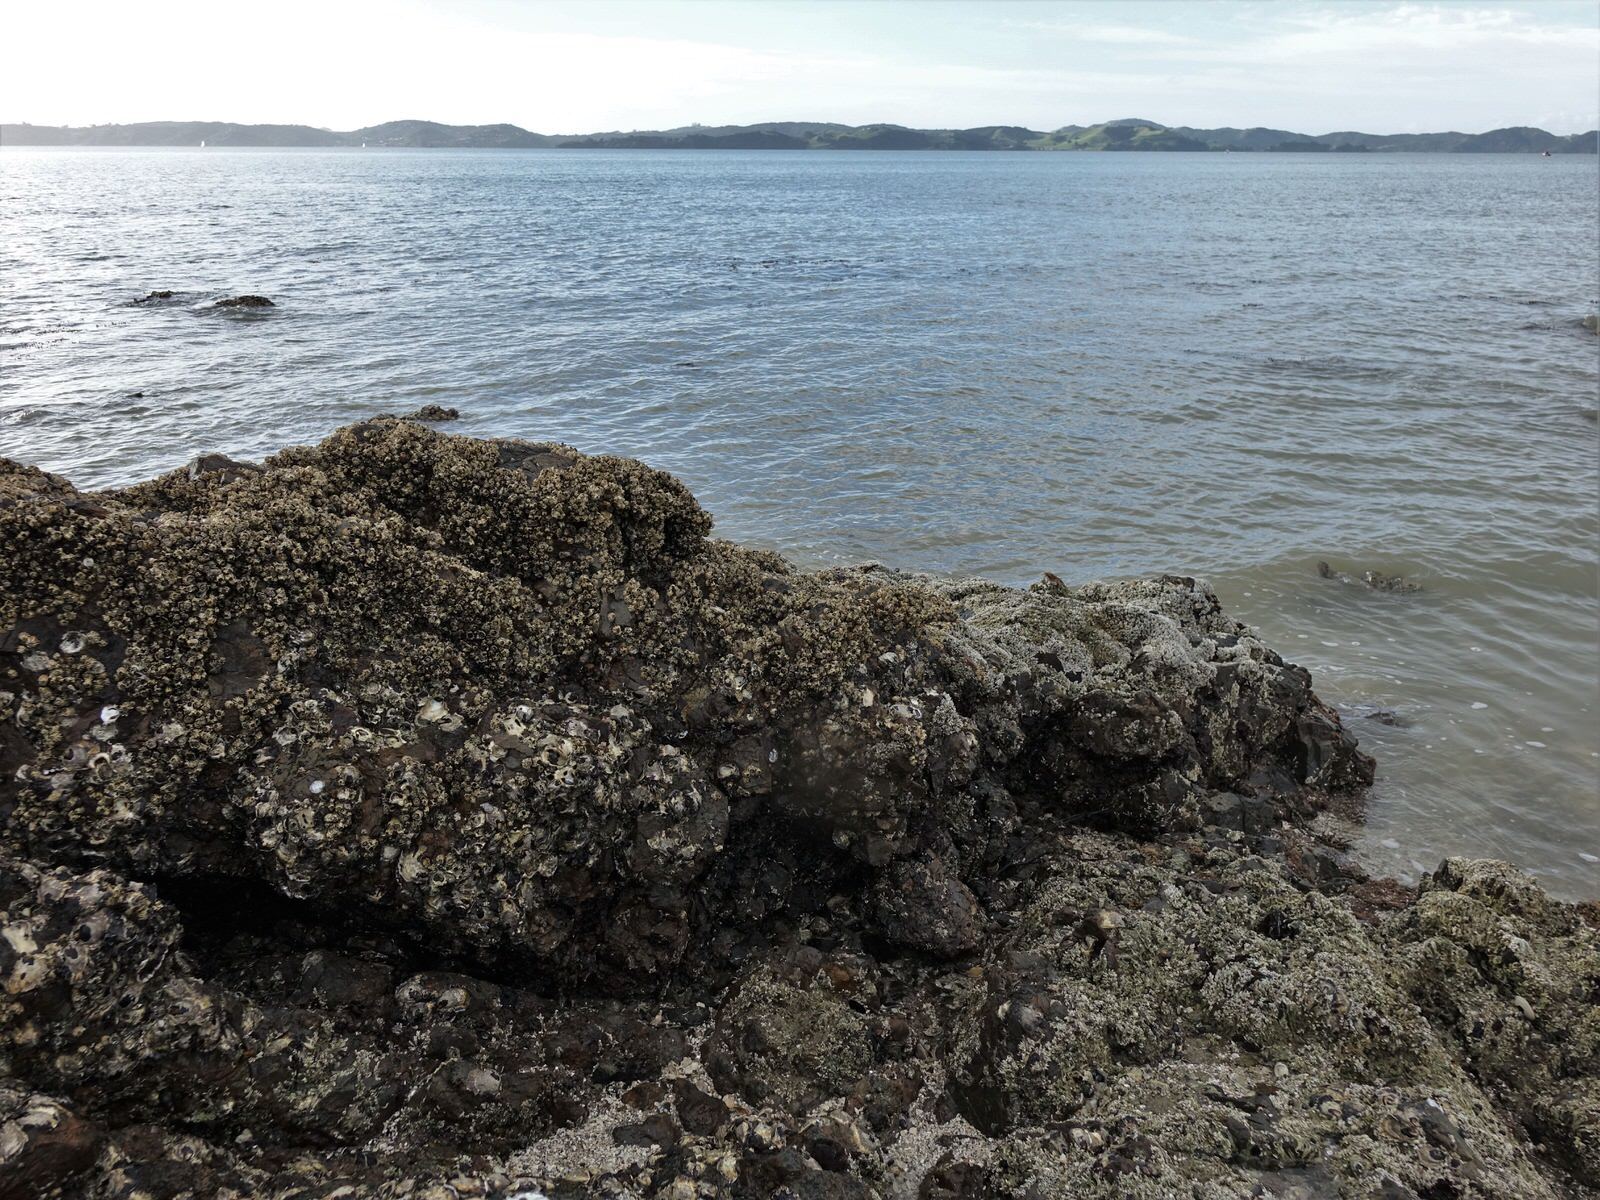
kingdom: Animalia
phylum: Bryozoa
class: Gymnolaemata
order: Cheilostomatida
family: Watersiporidae
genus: Watersipora
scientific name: Watersipora subatra
